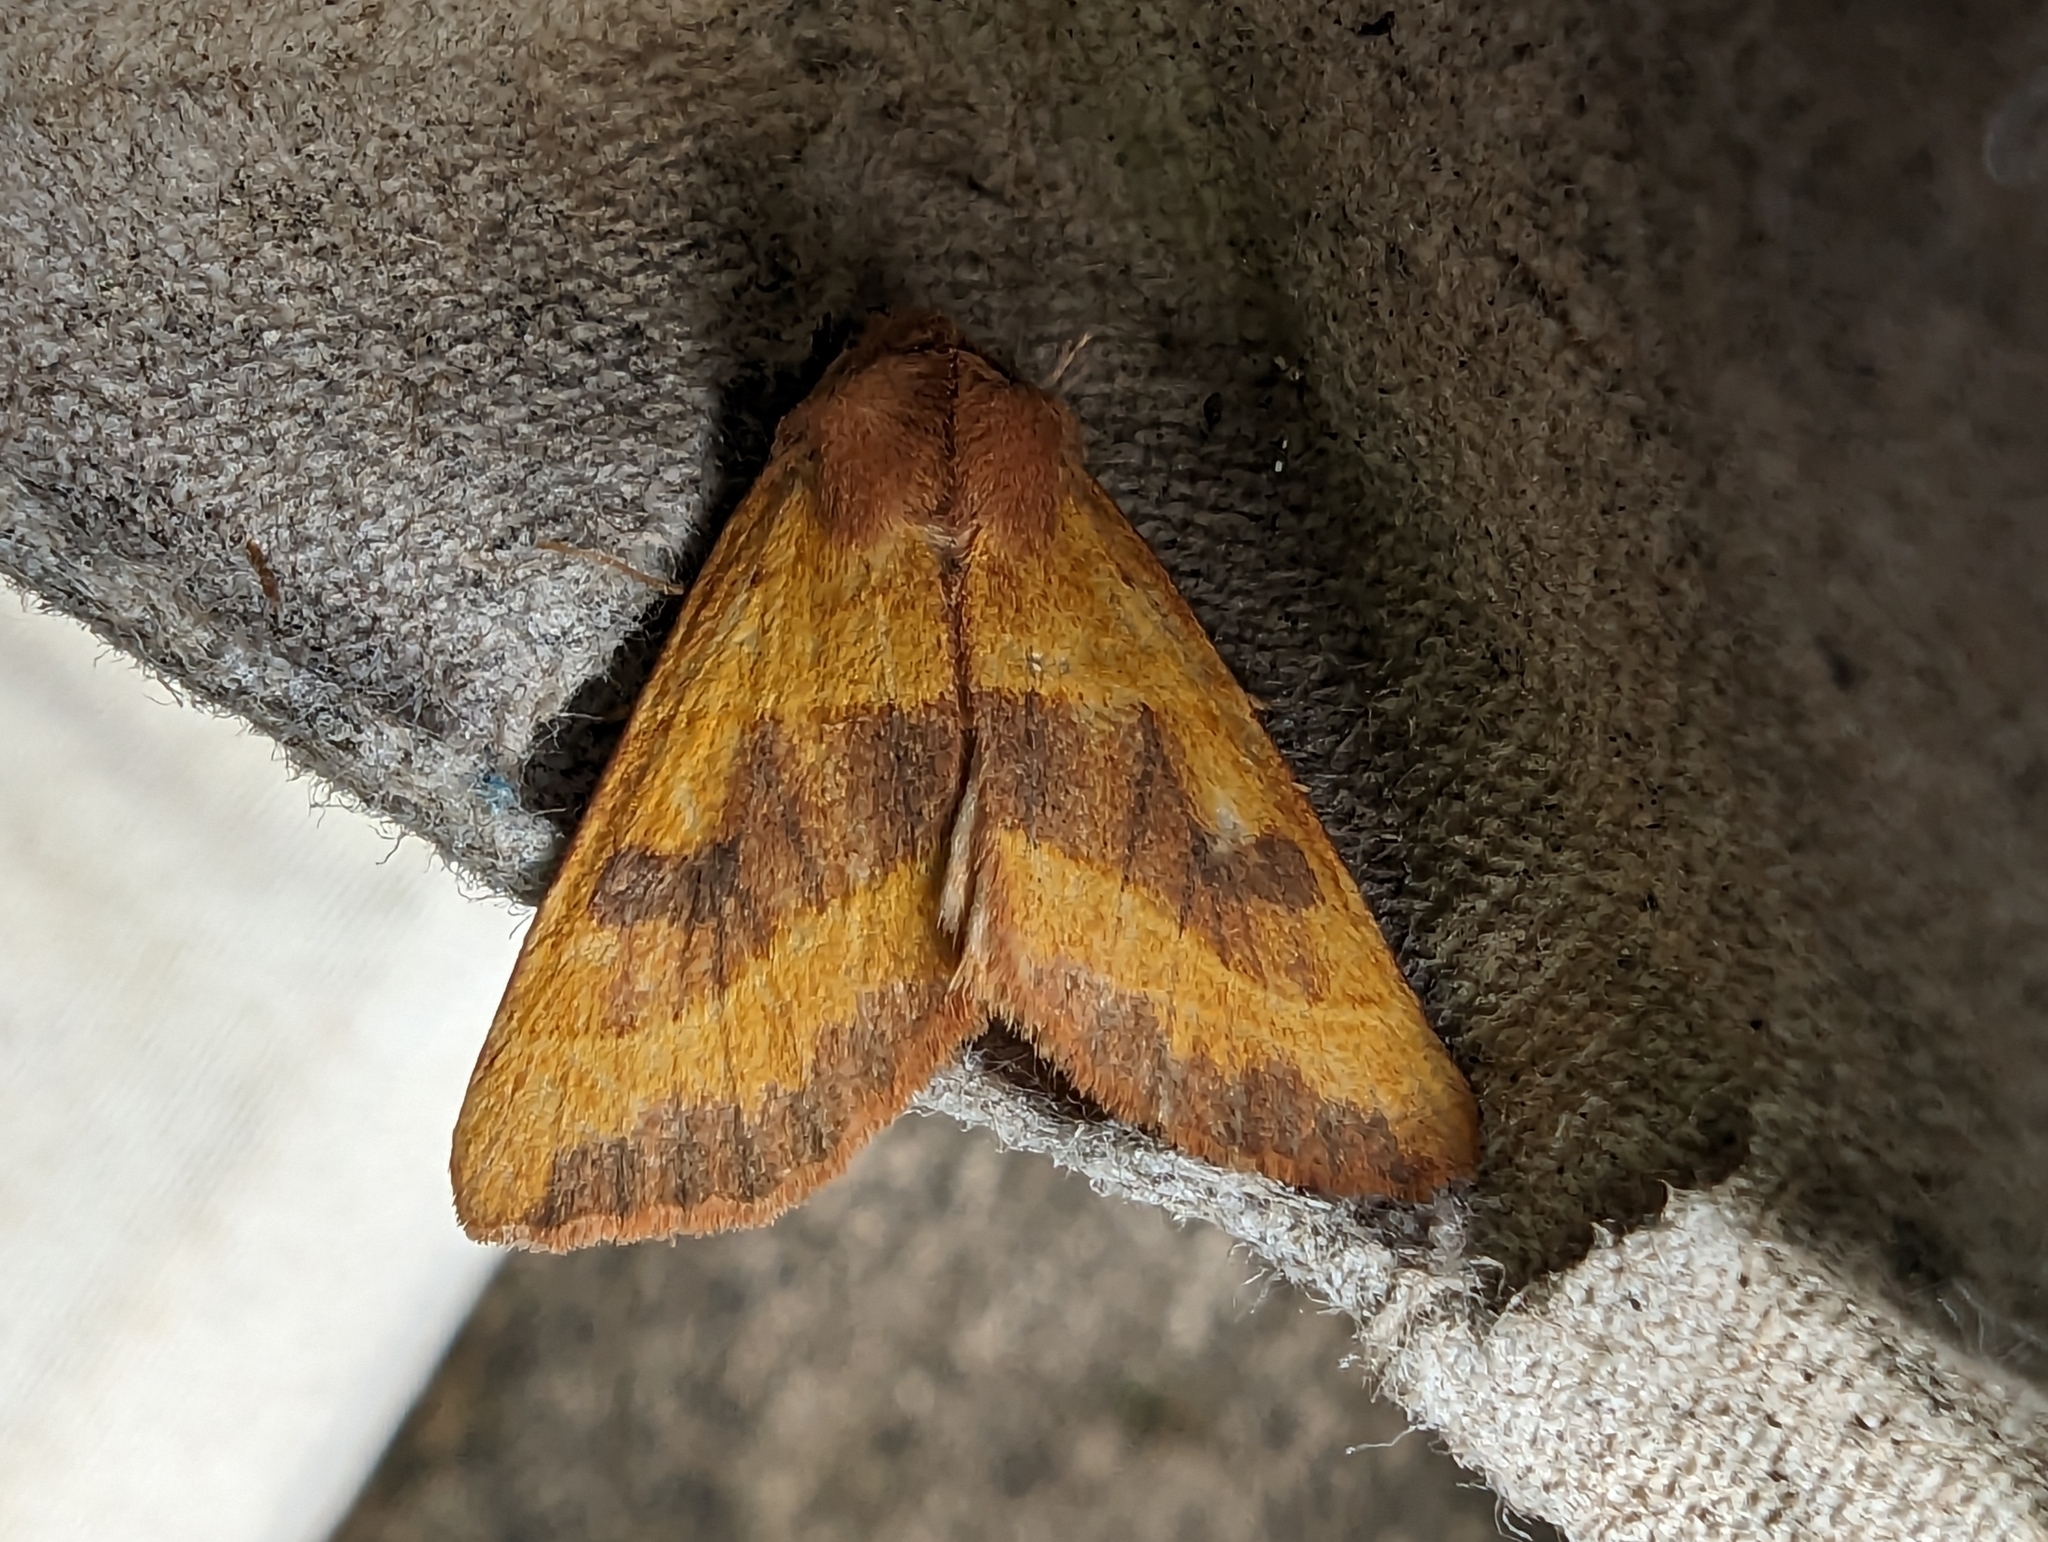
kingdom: Animalia
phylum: Arthropoda
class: Insecta
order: Lepidoptera
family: Noctuidae
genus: Atethmia
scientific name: Atethmia centrago
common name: Centre-barred sallow
